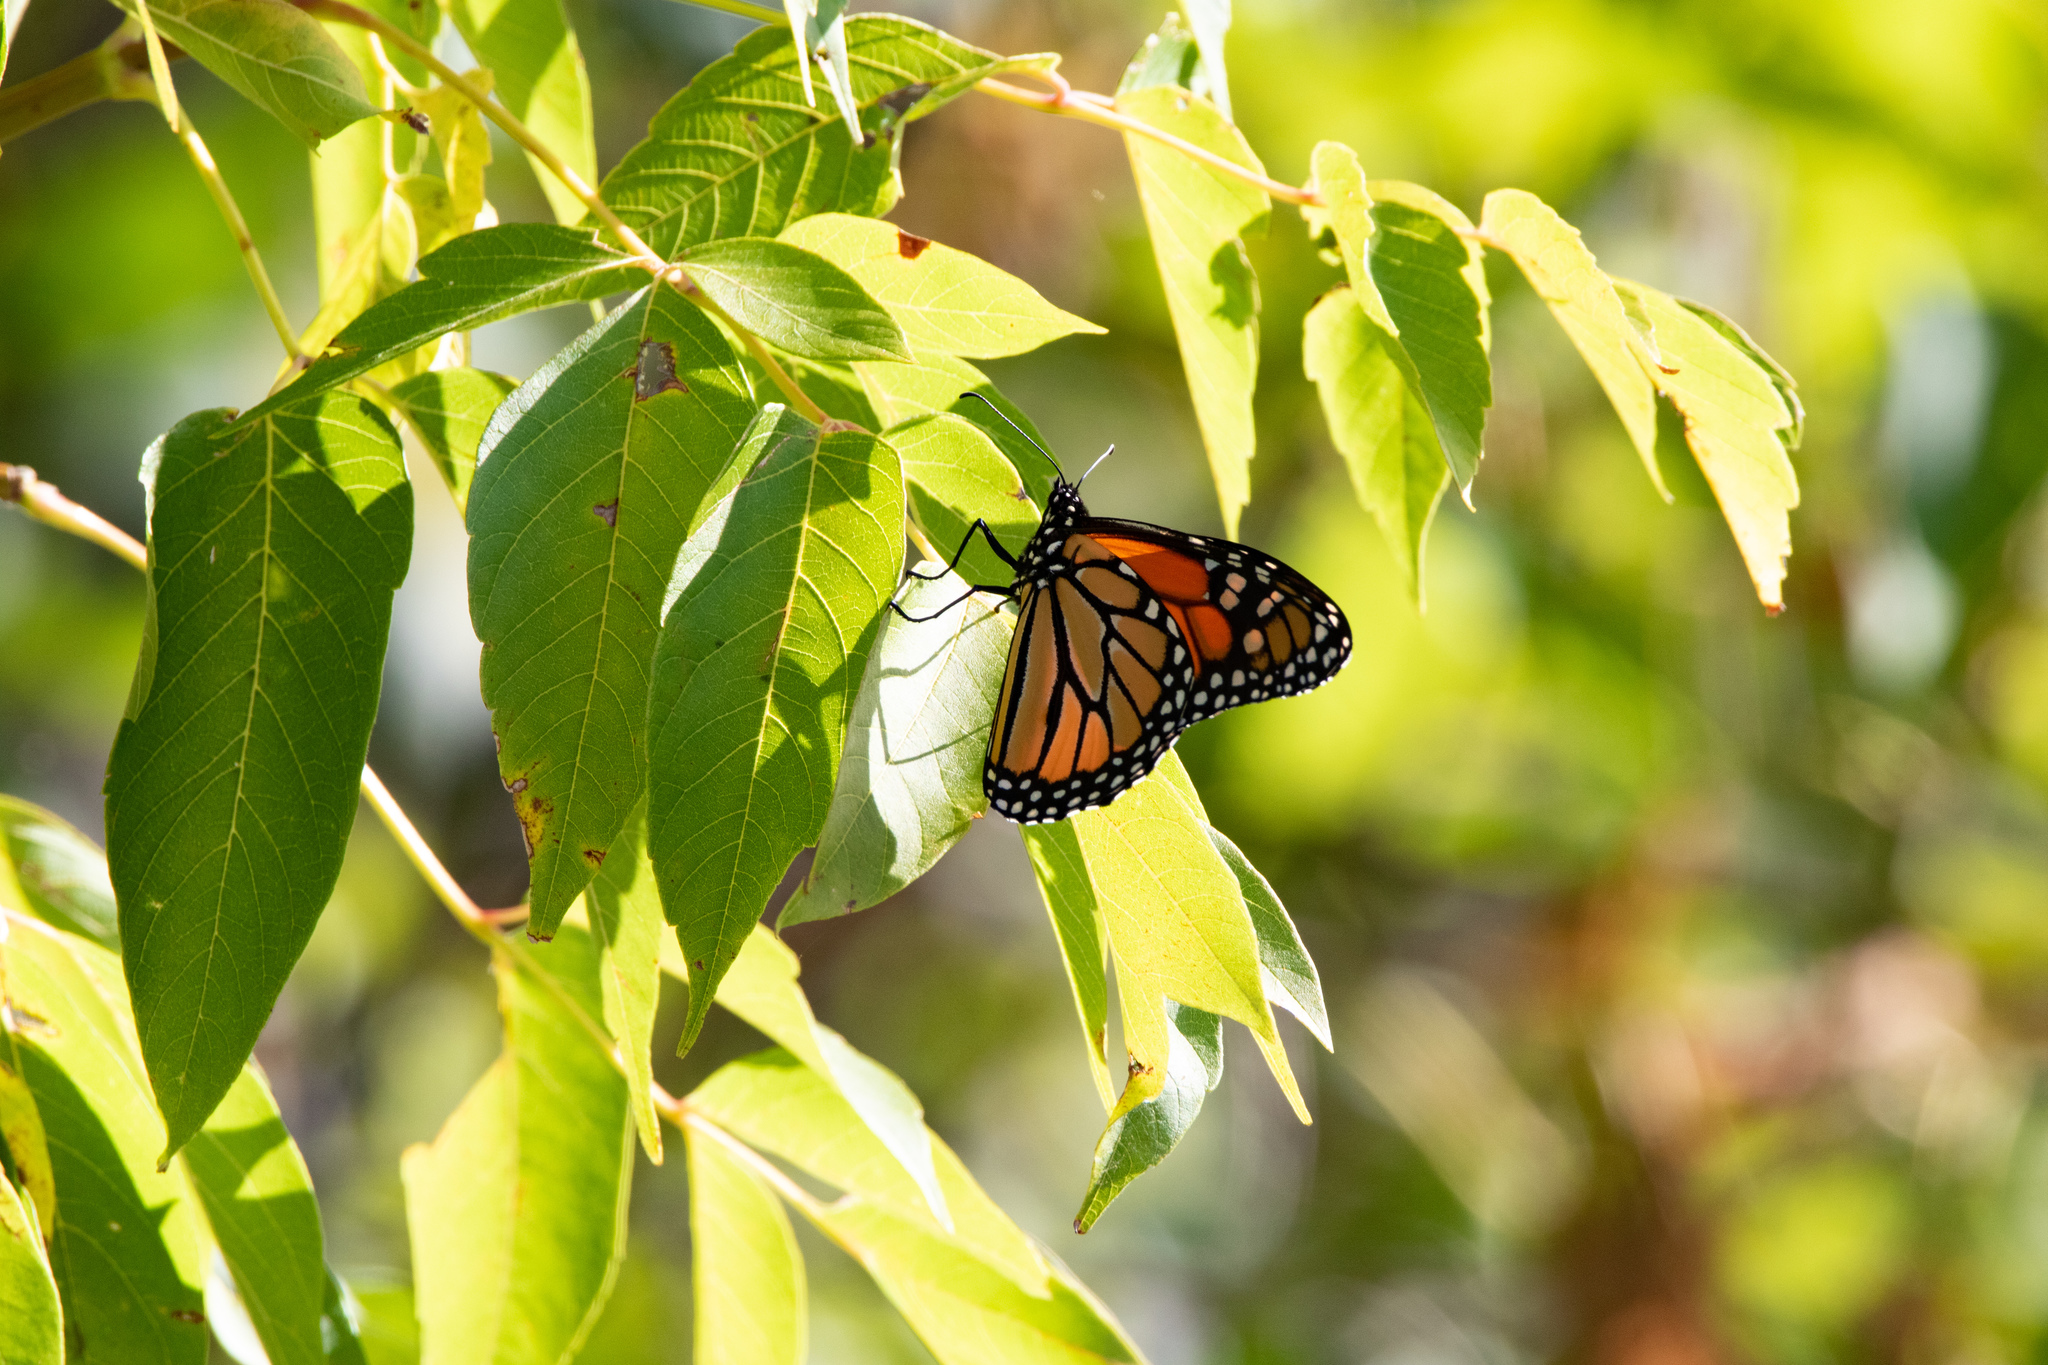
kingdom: Animalia
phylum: Arthropoda
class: Insecta
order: Lepidoptera
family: Nymphalidae
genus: Danaus
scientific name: Danaus plexippus
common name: Monarch
